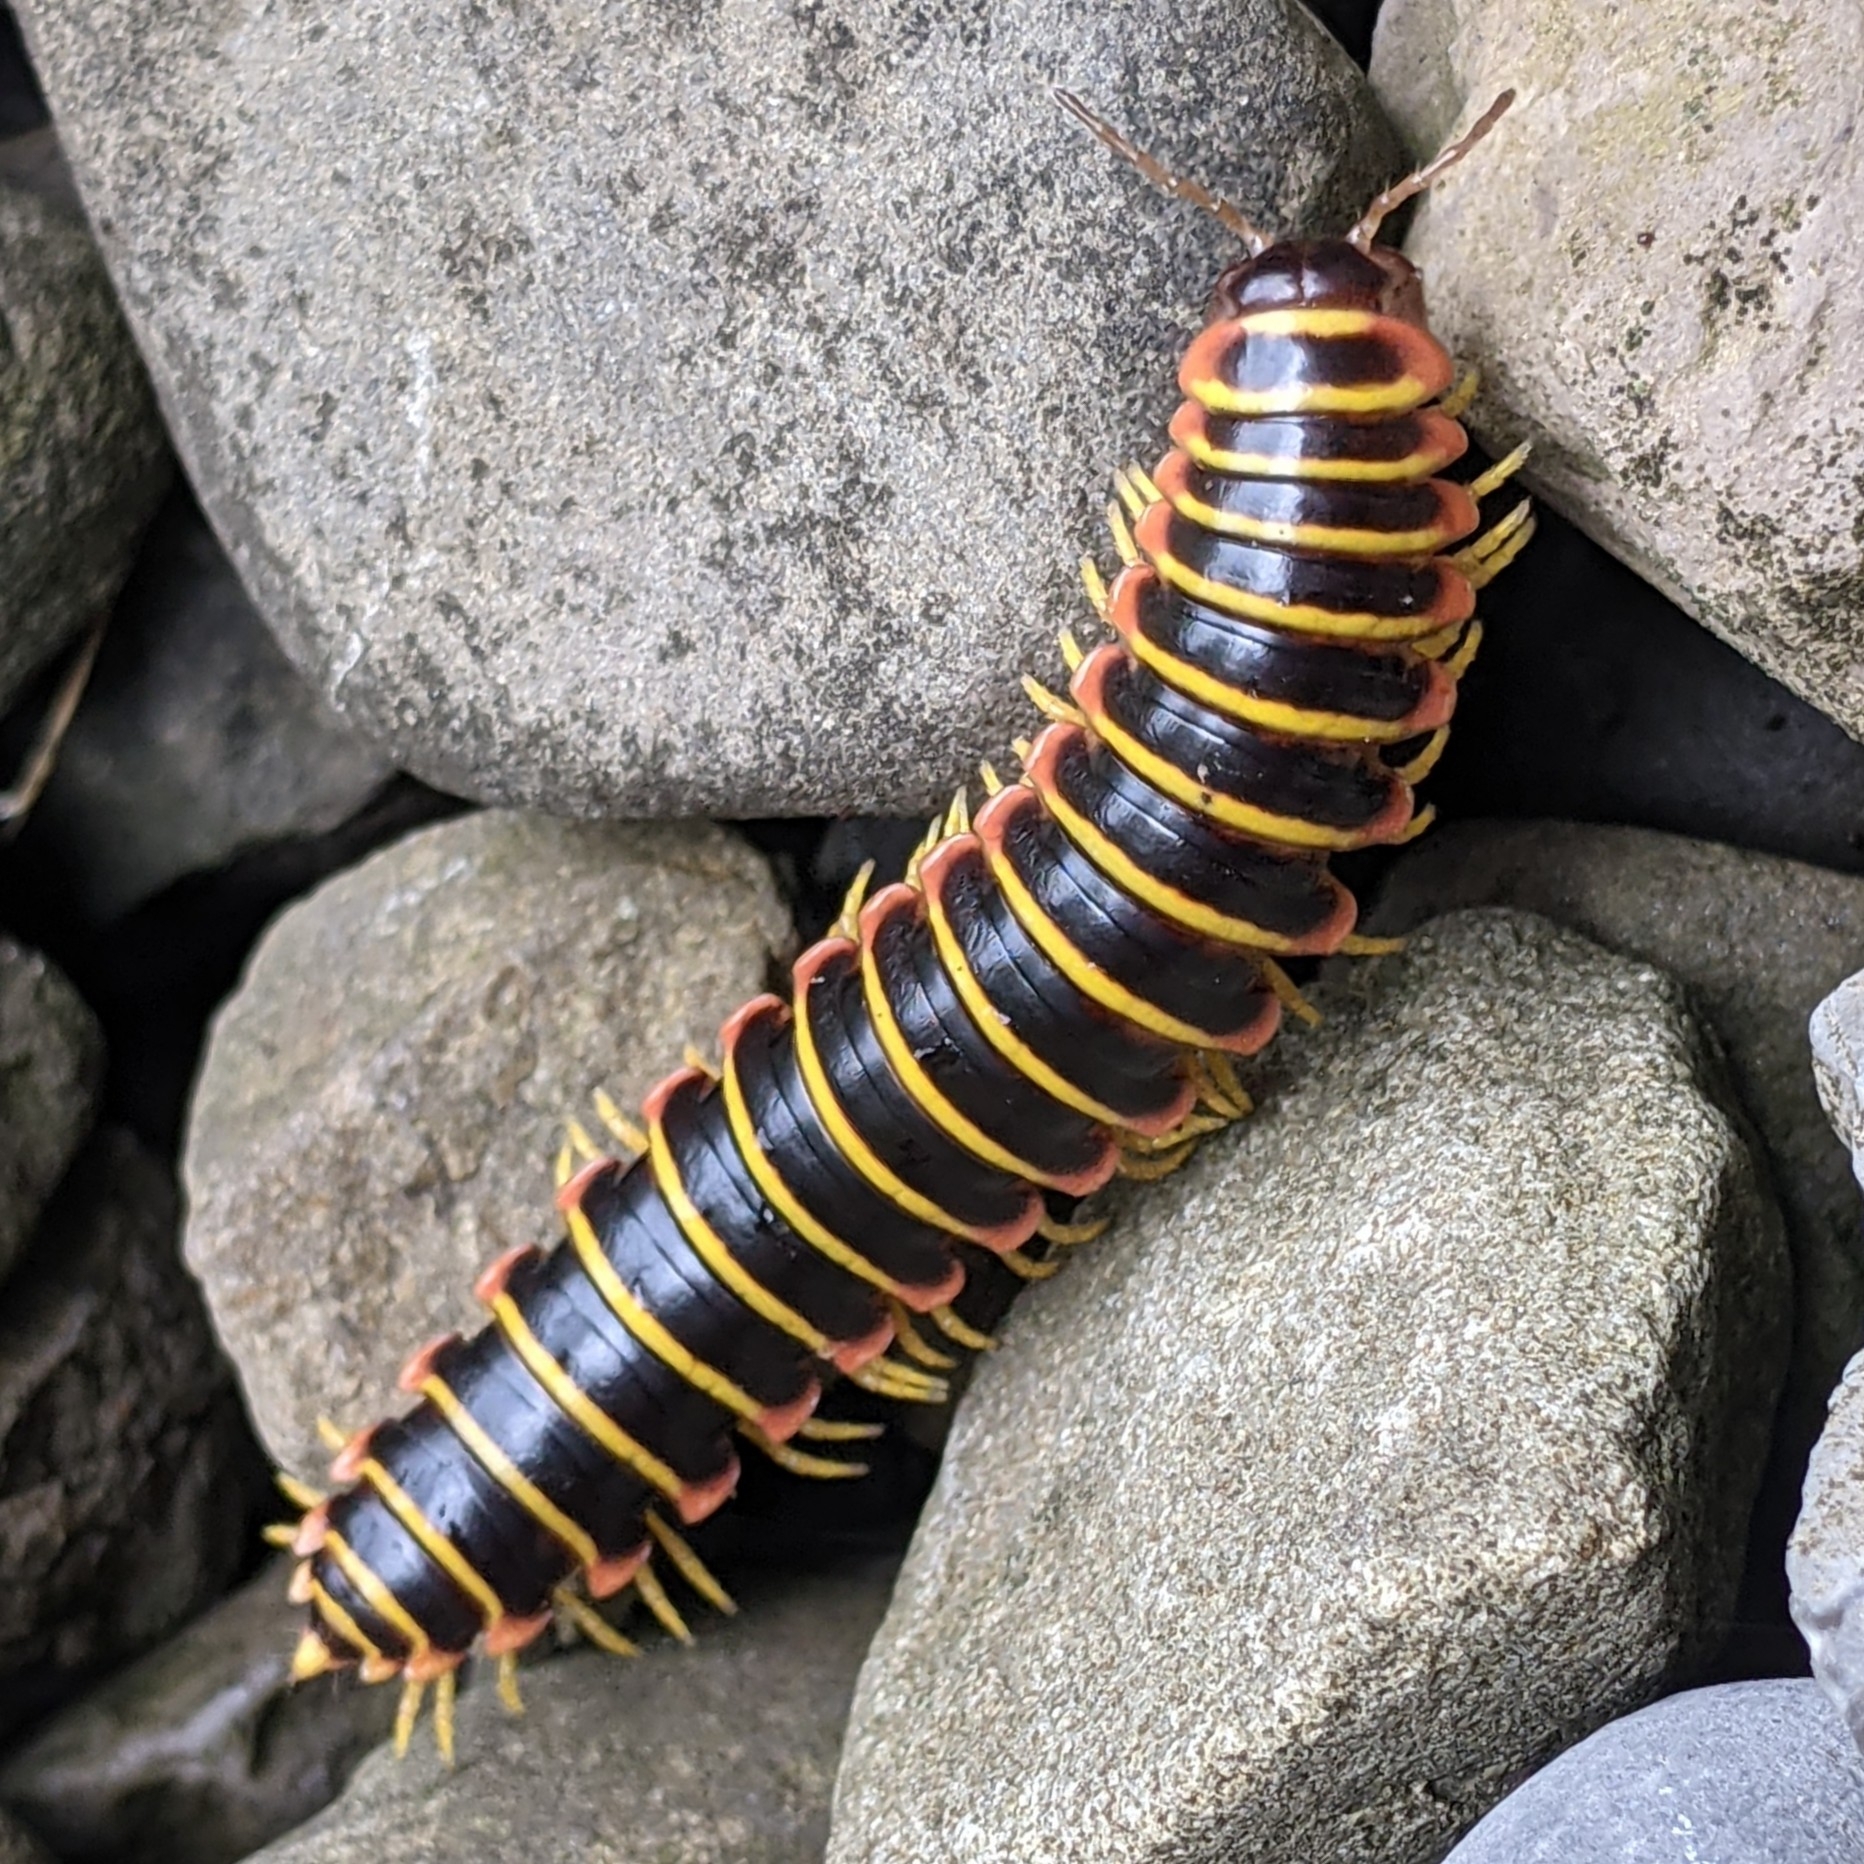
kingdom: Animalia
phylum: Arthropoda
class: Diplopoda
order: Polydesmida
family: Xystodesmidae
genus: Apheloria
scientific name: Apheloria virginiensis
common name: Black-and-gold flat millipede
